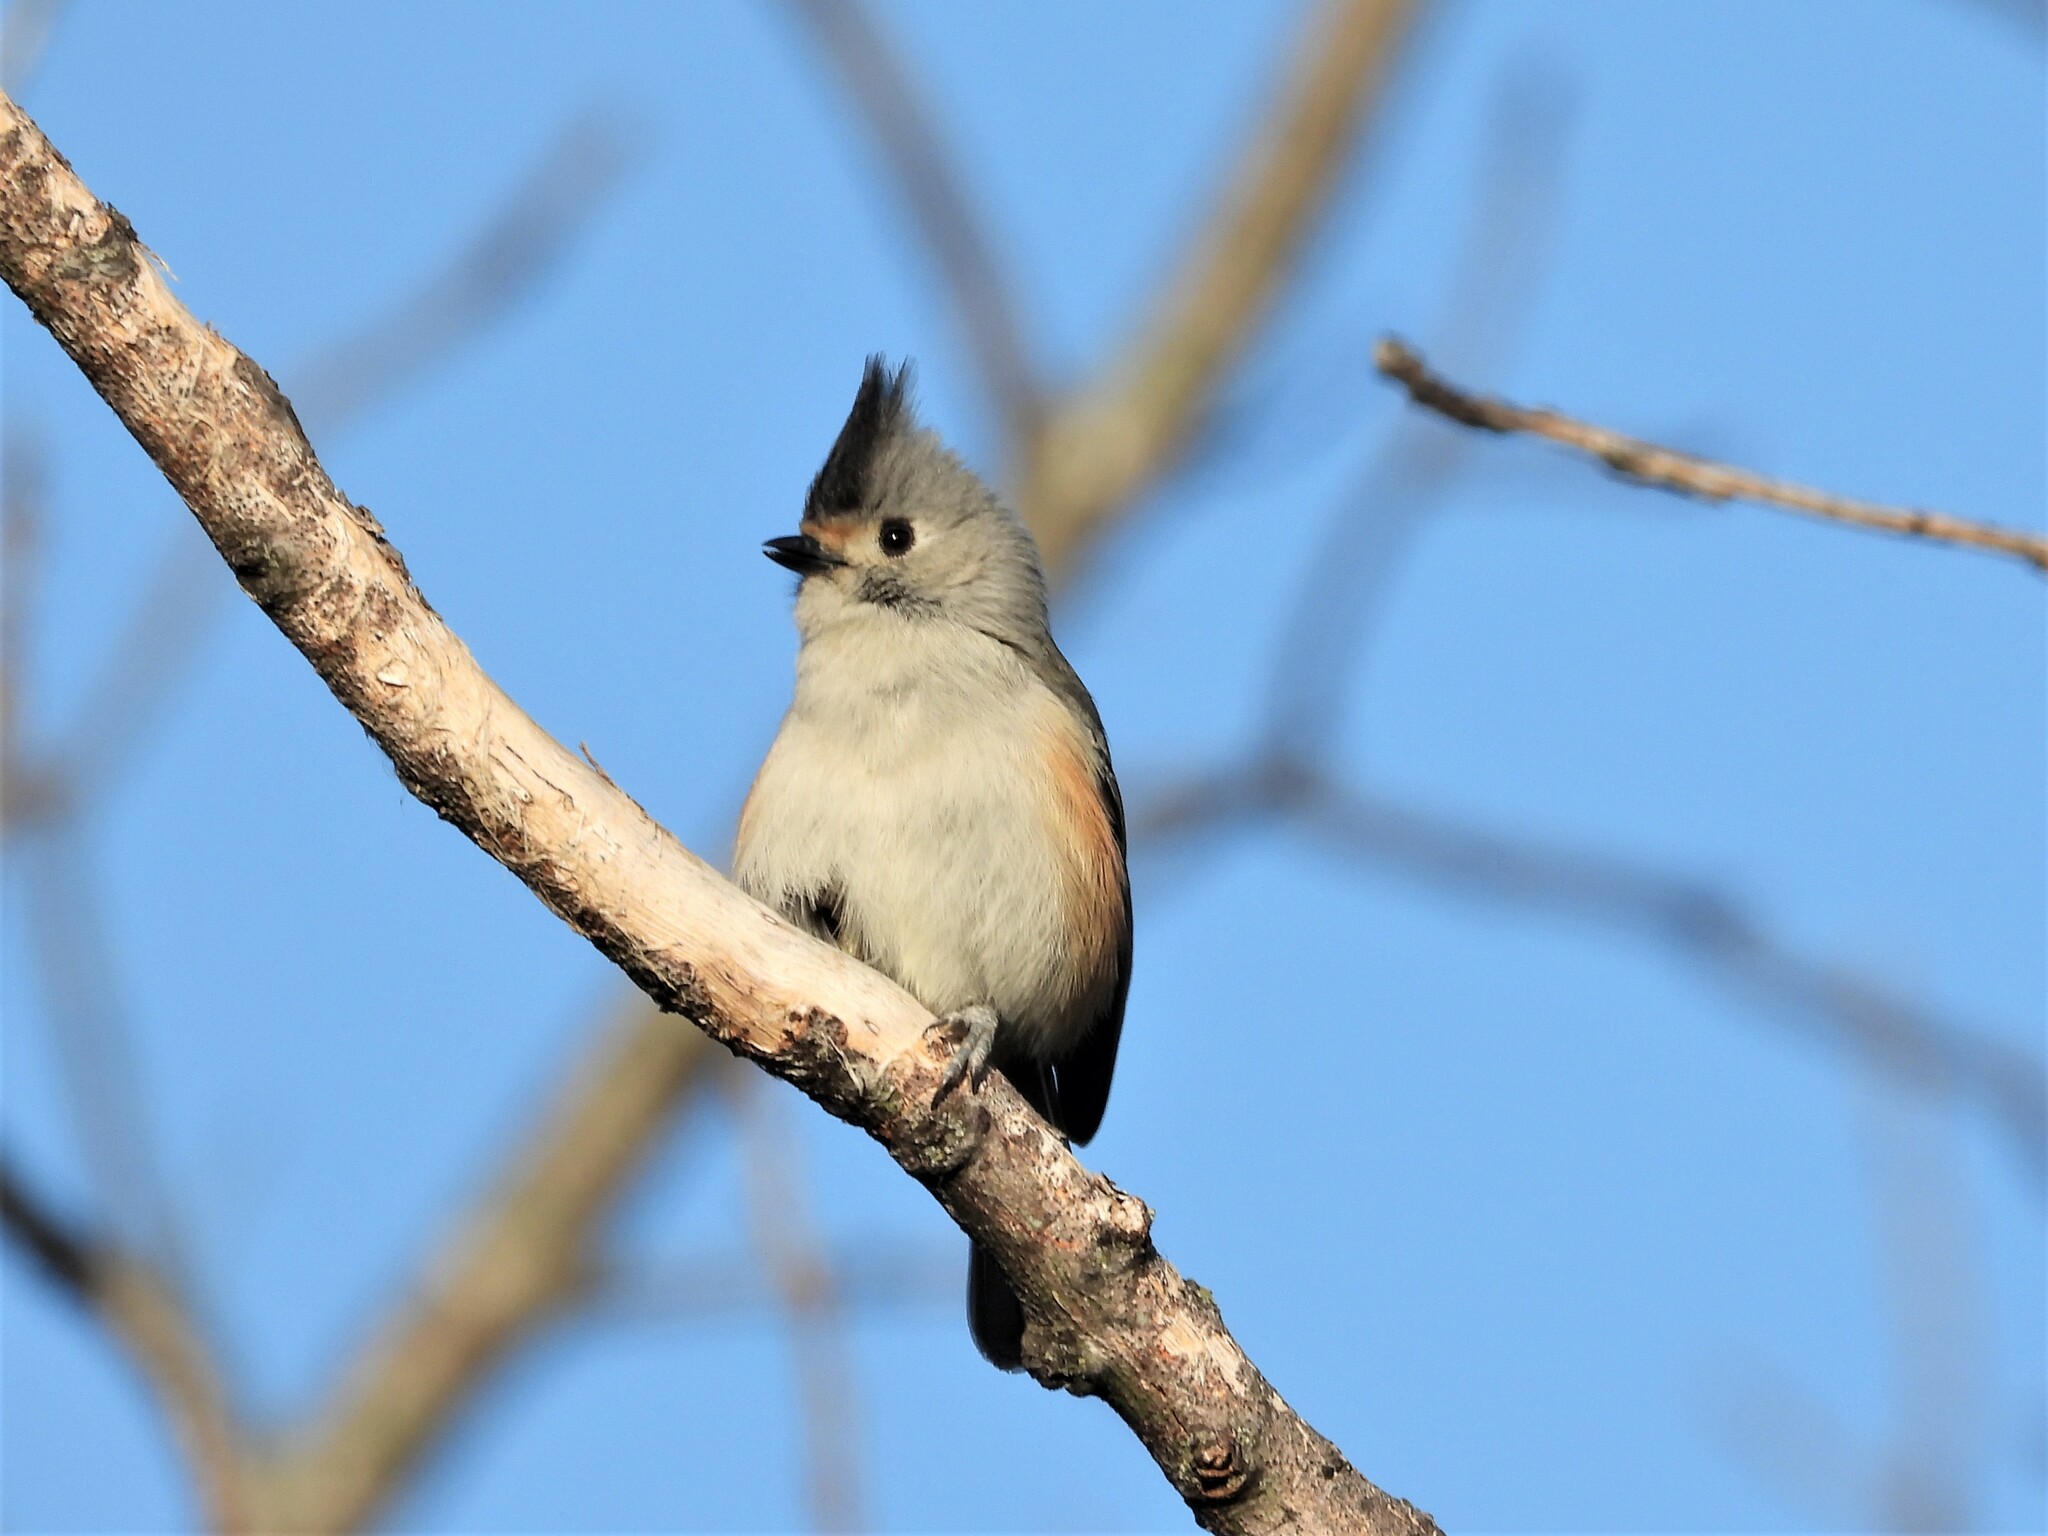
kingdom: Animalia
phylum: Chordata
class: Aves
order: Passeriformes
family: Paridae
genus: Baeolophus
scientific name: Baeolophus atricristatus
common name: Black-crested titmouse
